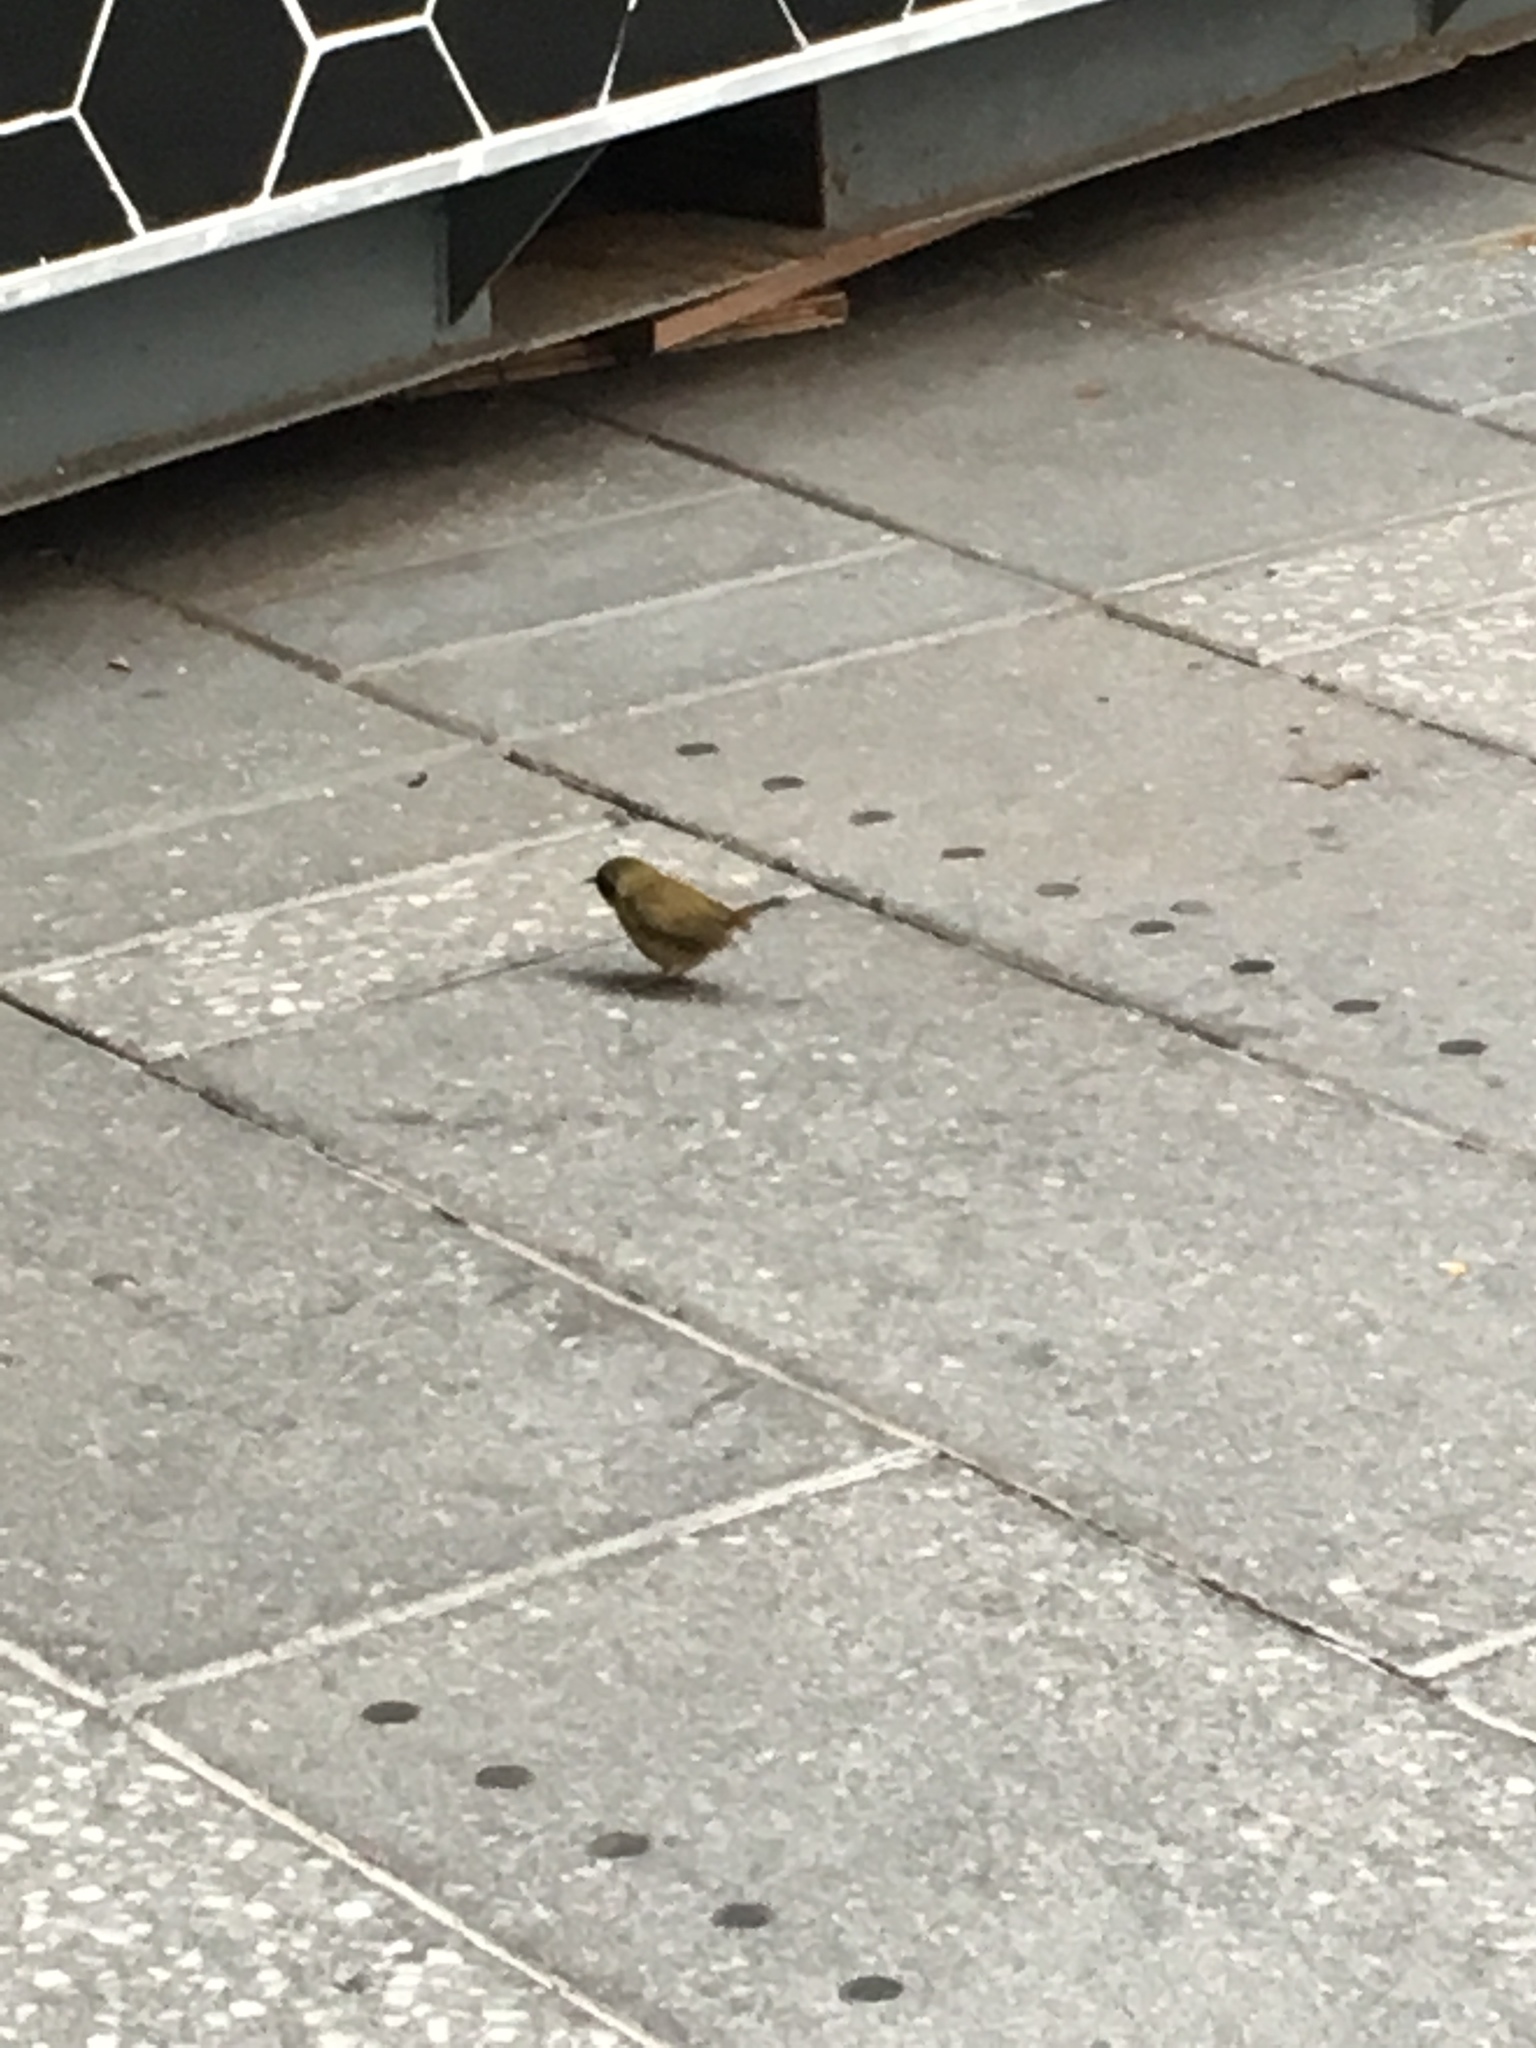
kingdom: Animalia
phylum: Chordata
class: Aves
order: Passeriformes
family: Parulidae
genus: Geothlypis
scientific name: Geothlypis trichas
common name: Common yellowthroat
